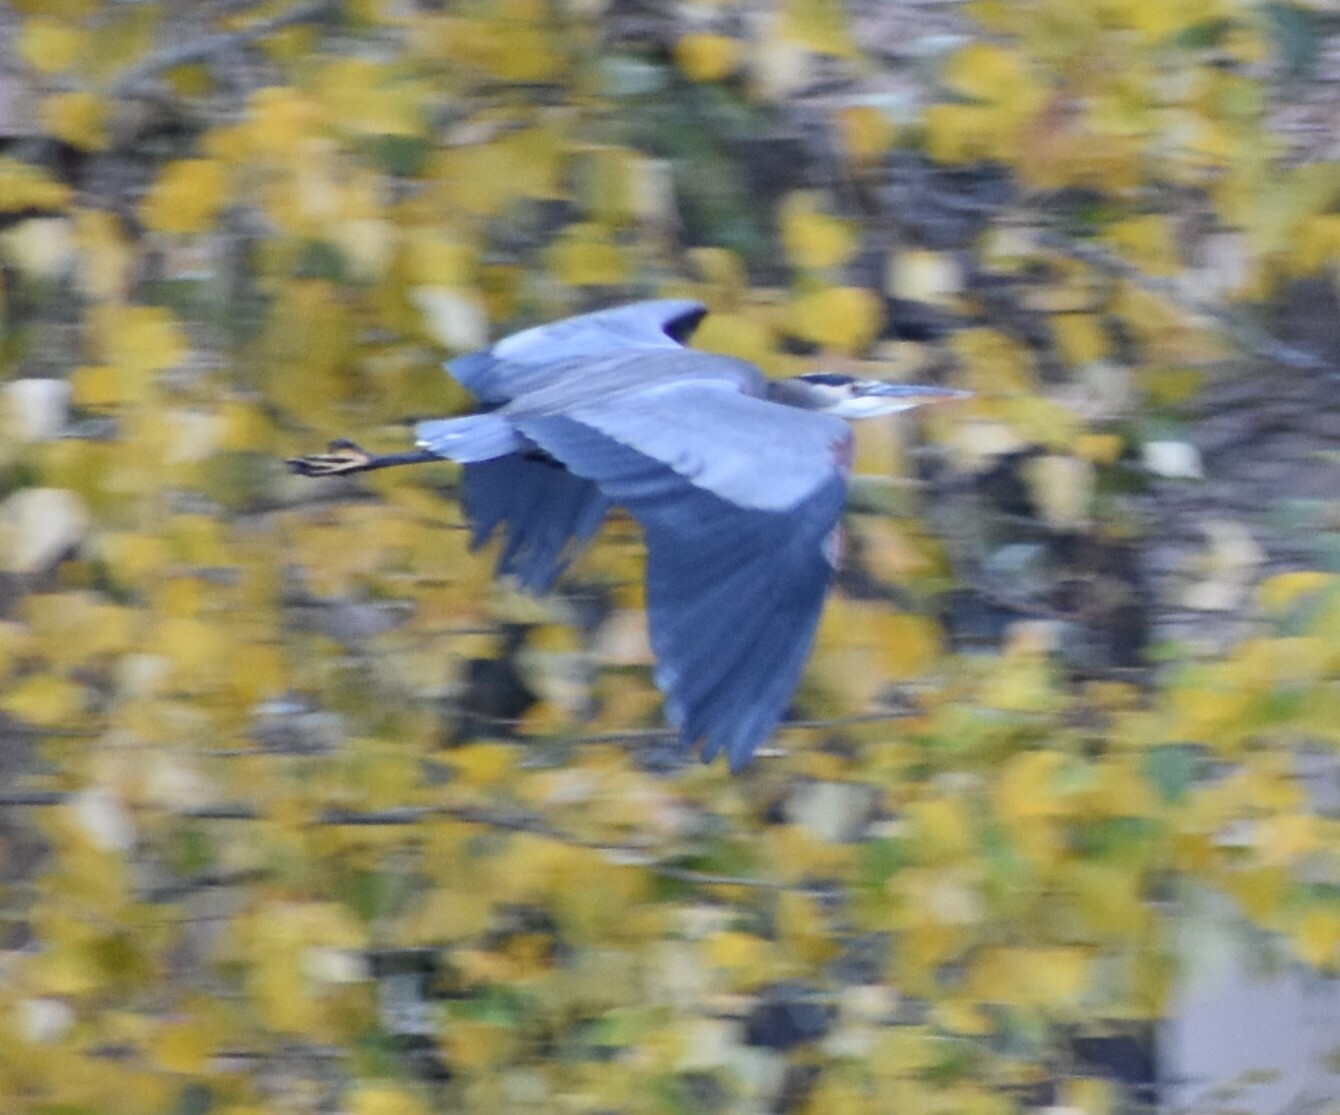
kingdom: Animalia
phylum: Chordata
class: Aves
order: Pelecaniformes
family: Ardeidae
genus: Ardea
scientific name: Ardea herodias
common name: Great blue heron
